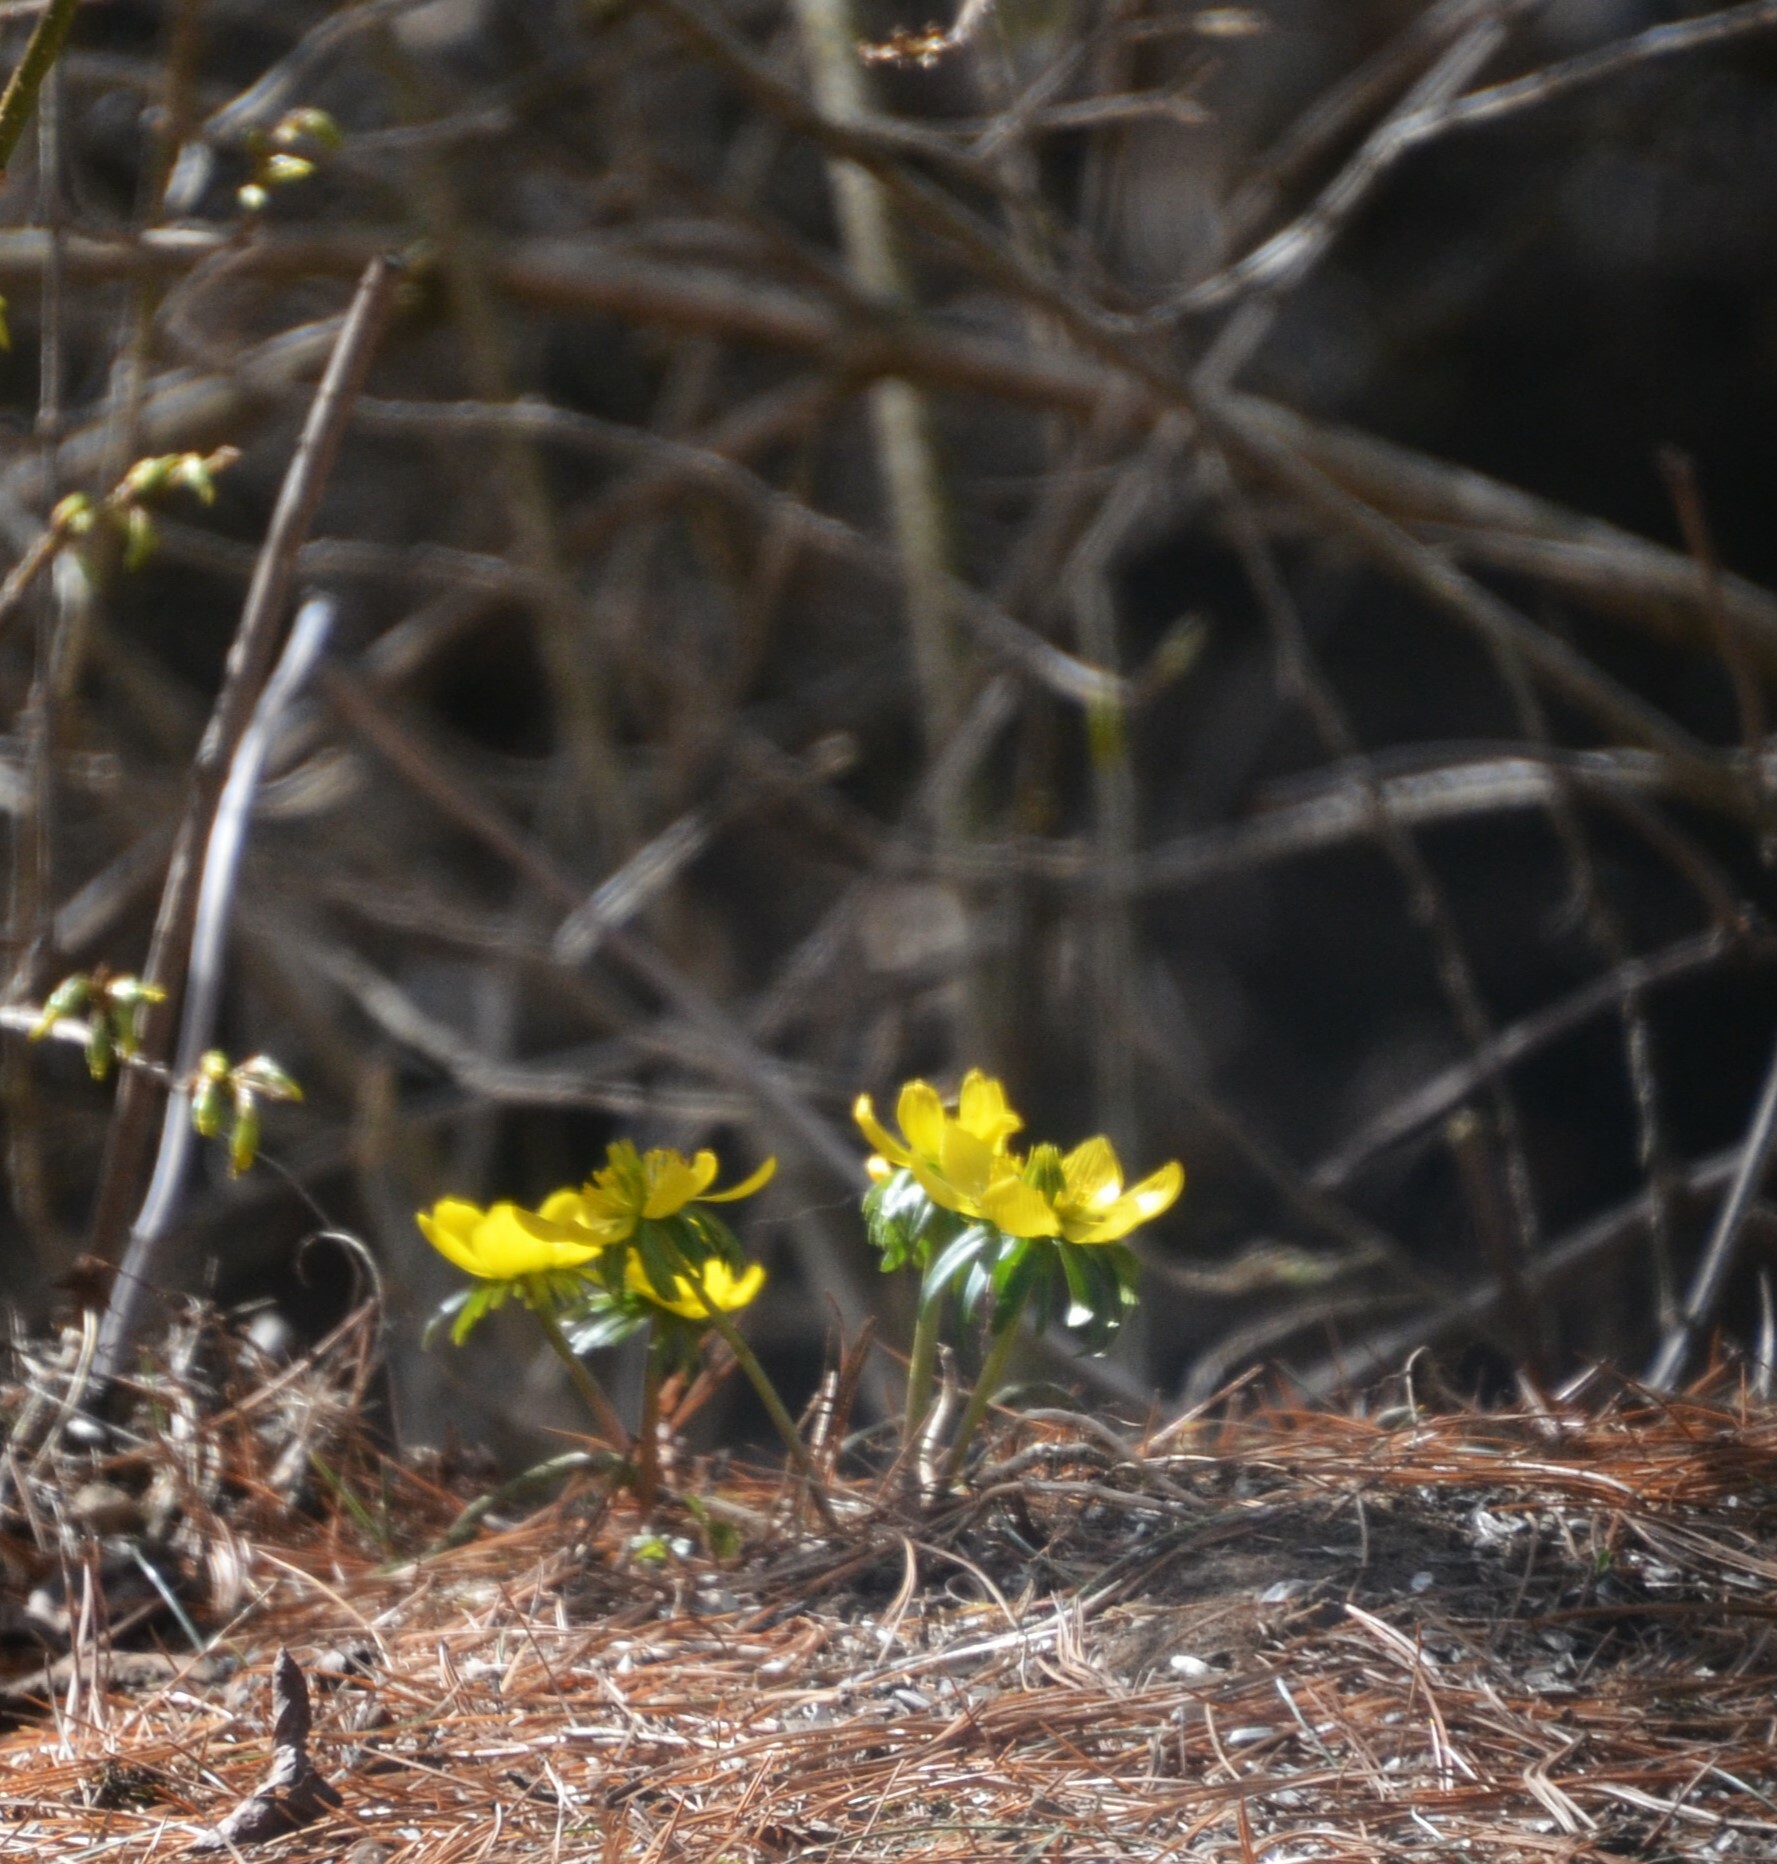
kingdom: Plantae
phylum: Tracheophyta
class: Magnoliopsida
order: Ranunculales
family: Ranunculaceae
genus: Eranthis
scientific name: Eranthis hyemalis
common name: Winter aconite
